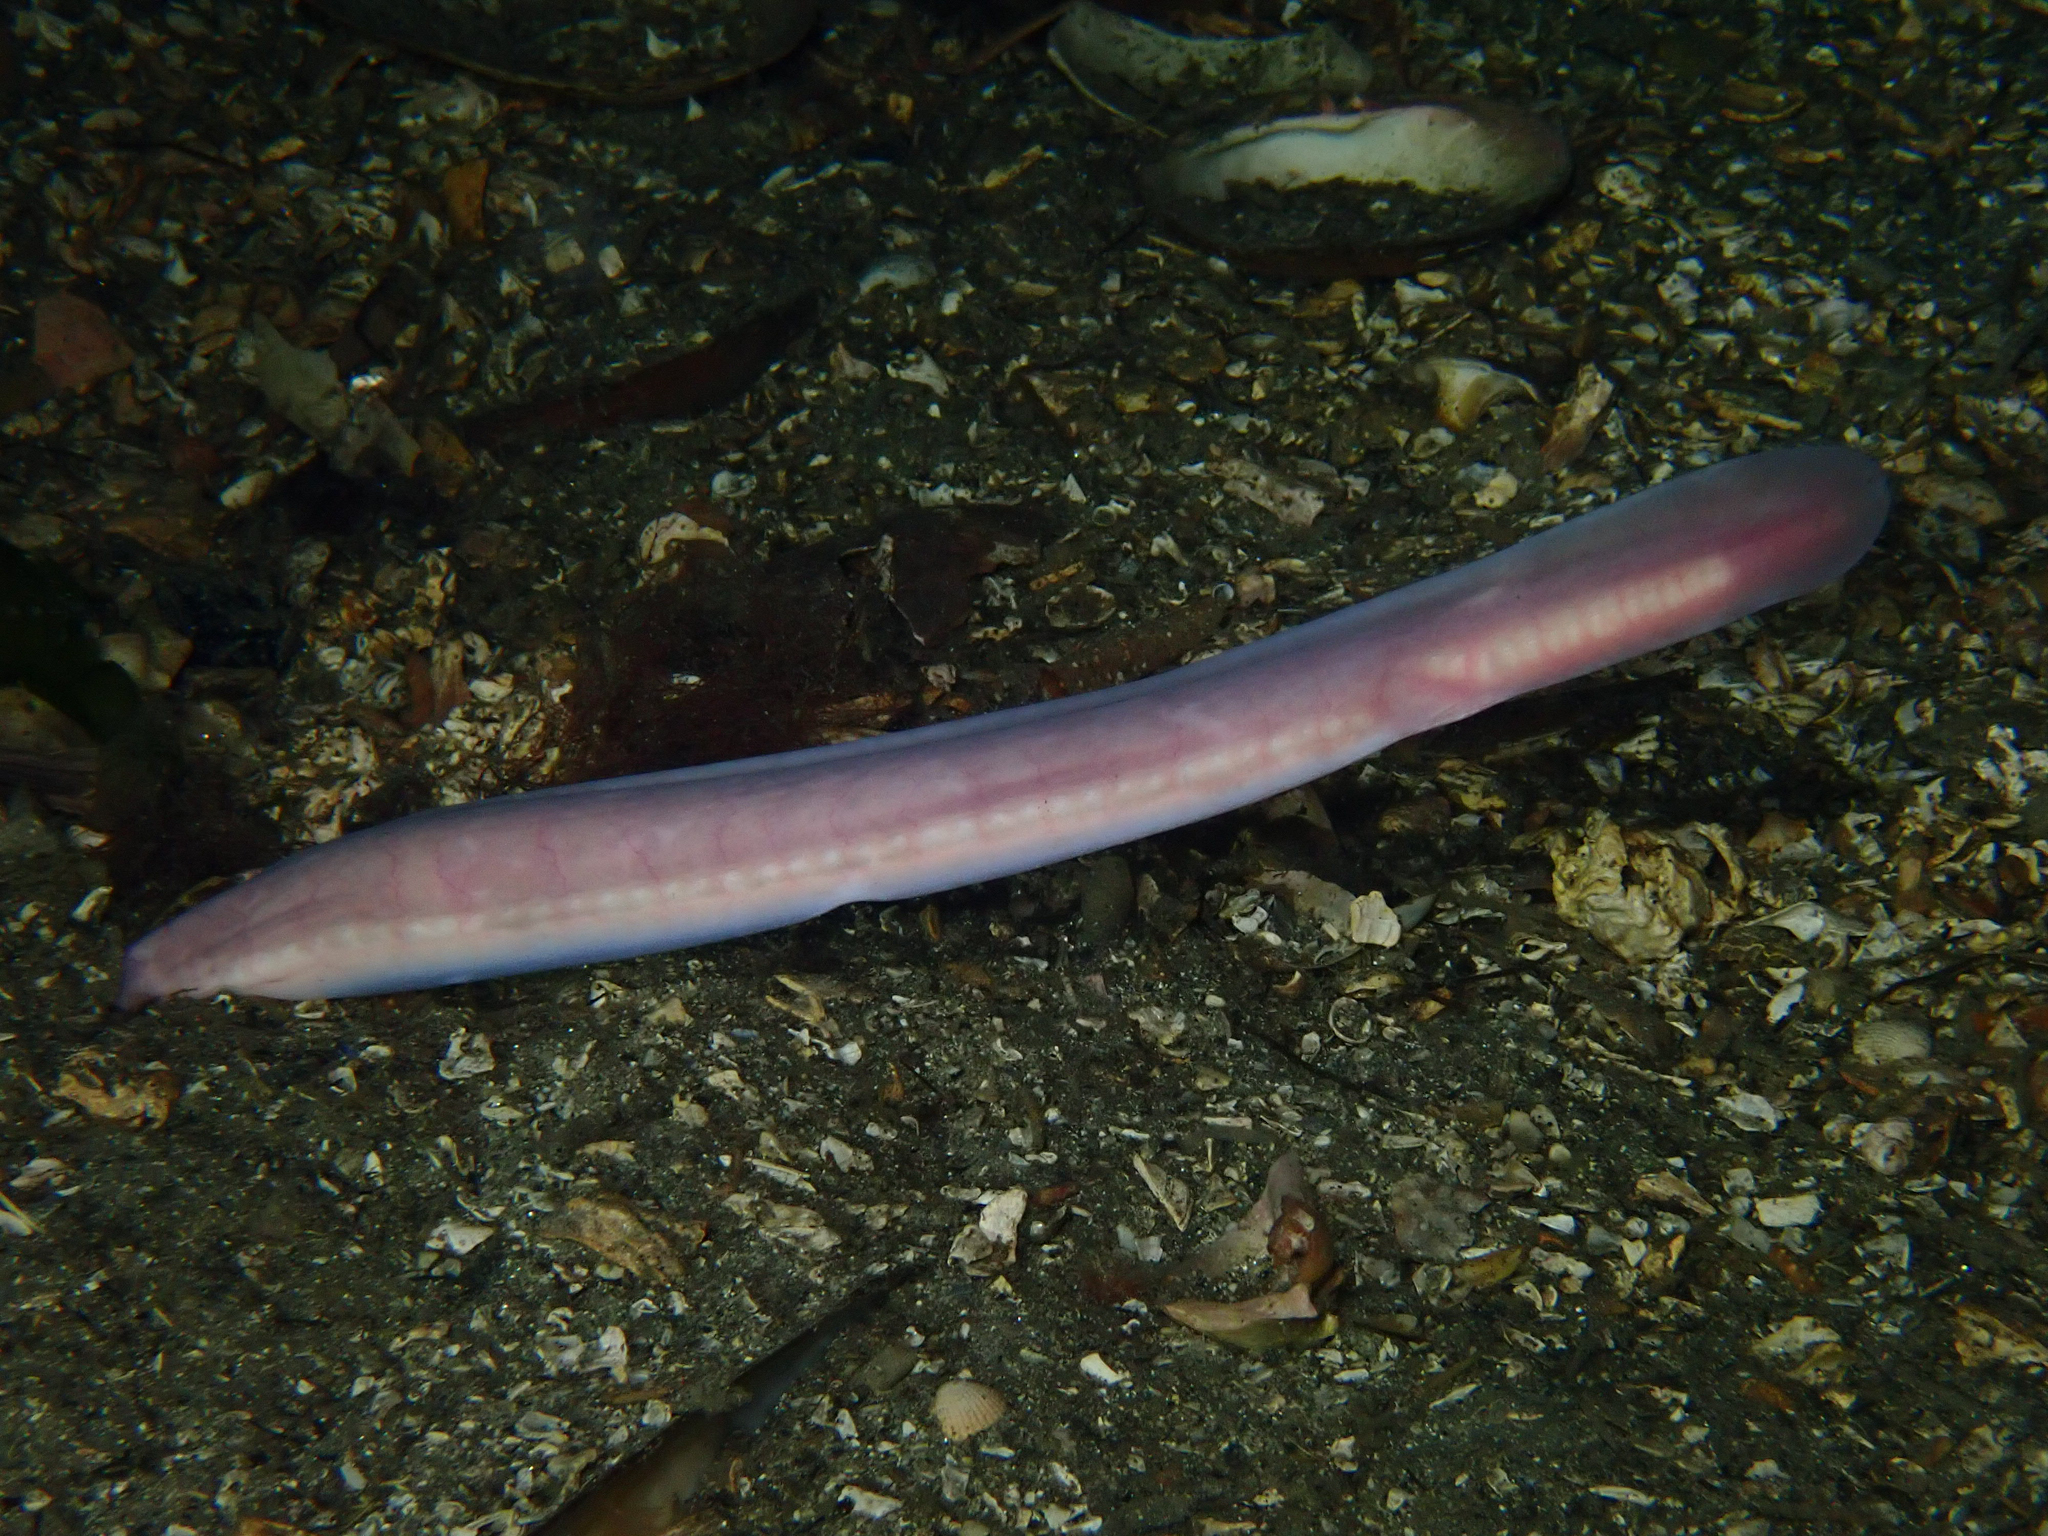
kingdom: Animalia
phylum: Chordata
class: Myxini
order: Myxiniformes
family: Myxinidae
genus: Myxine
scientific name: Myxine glutinosa
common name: Hagfish
